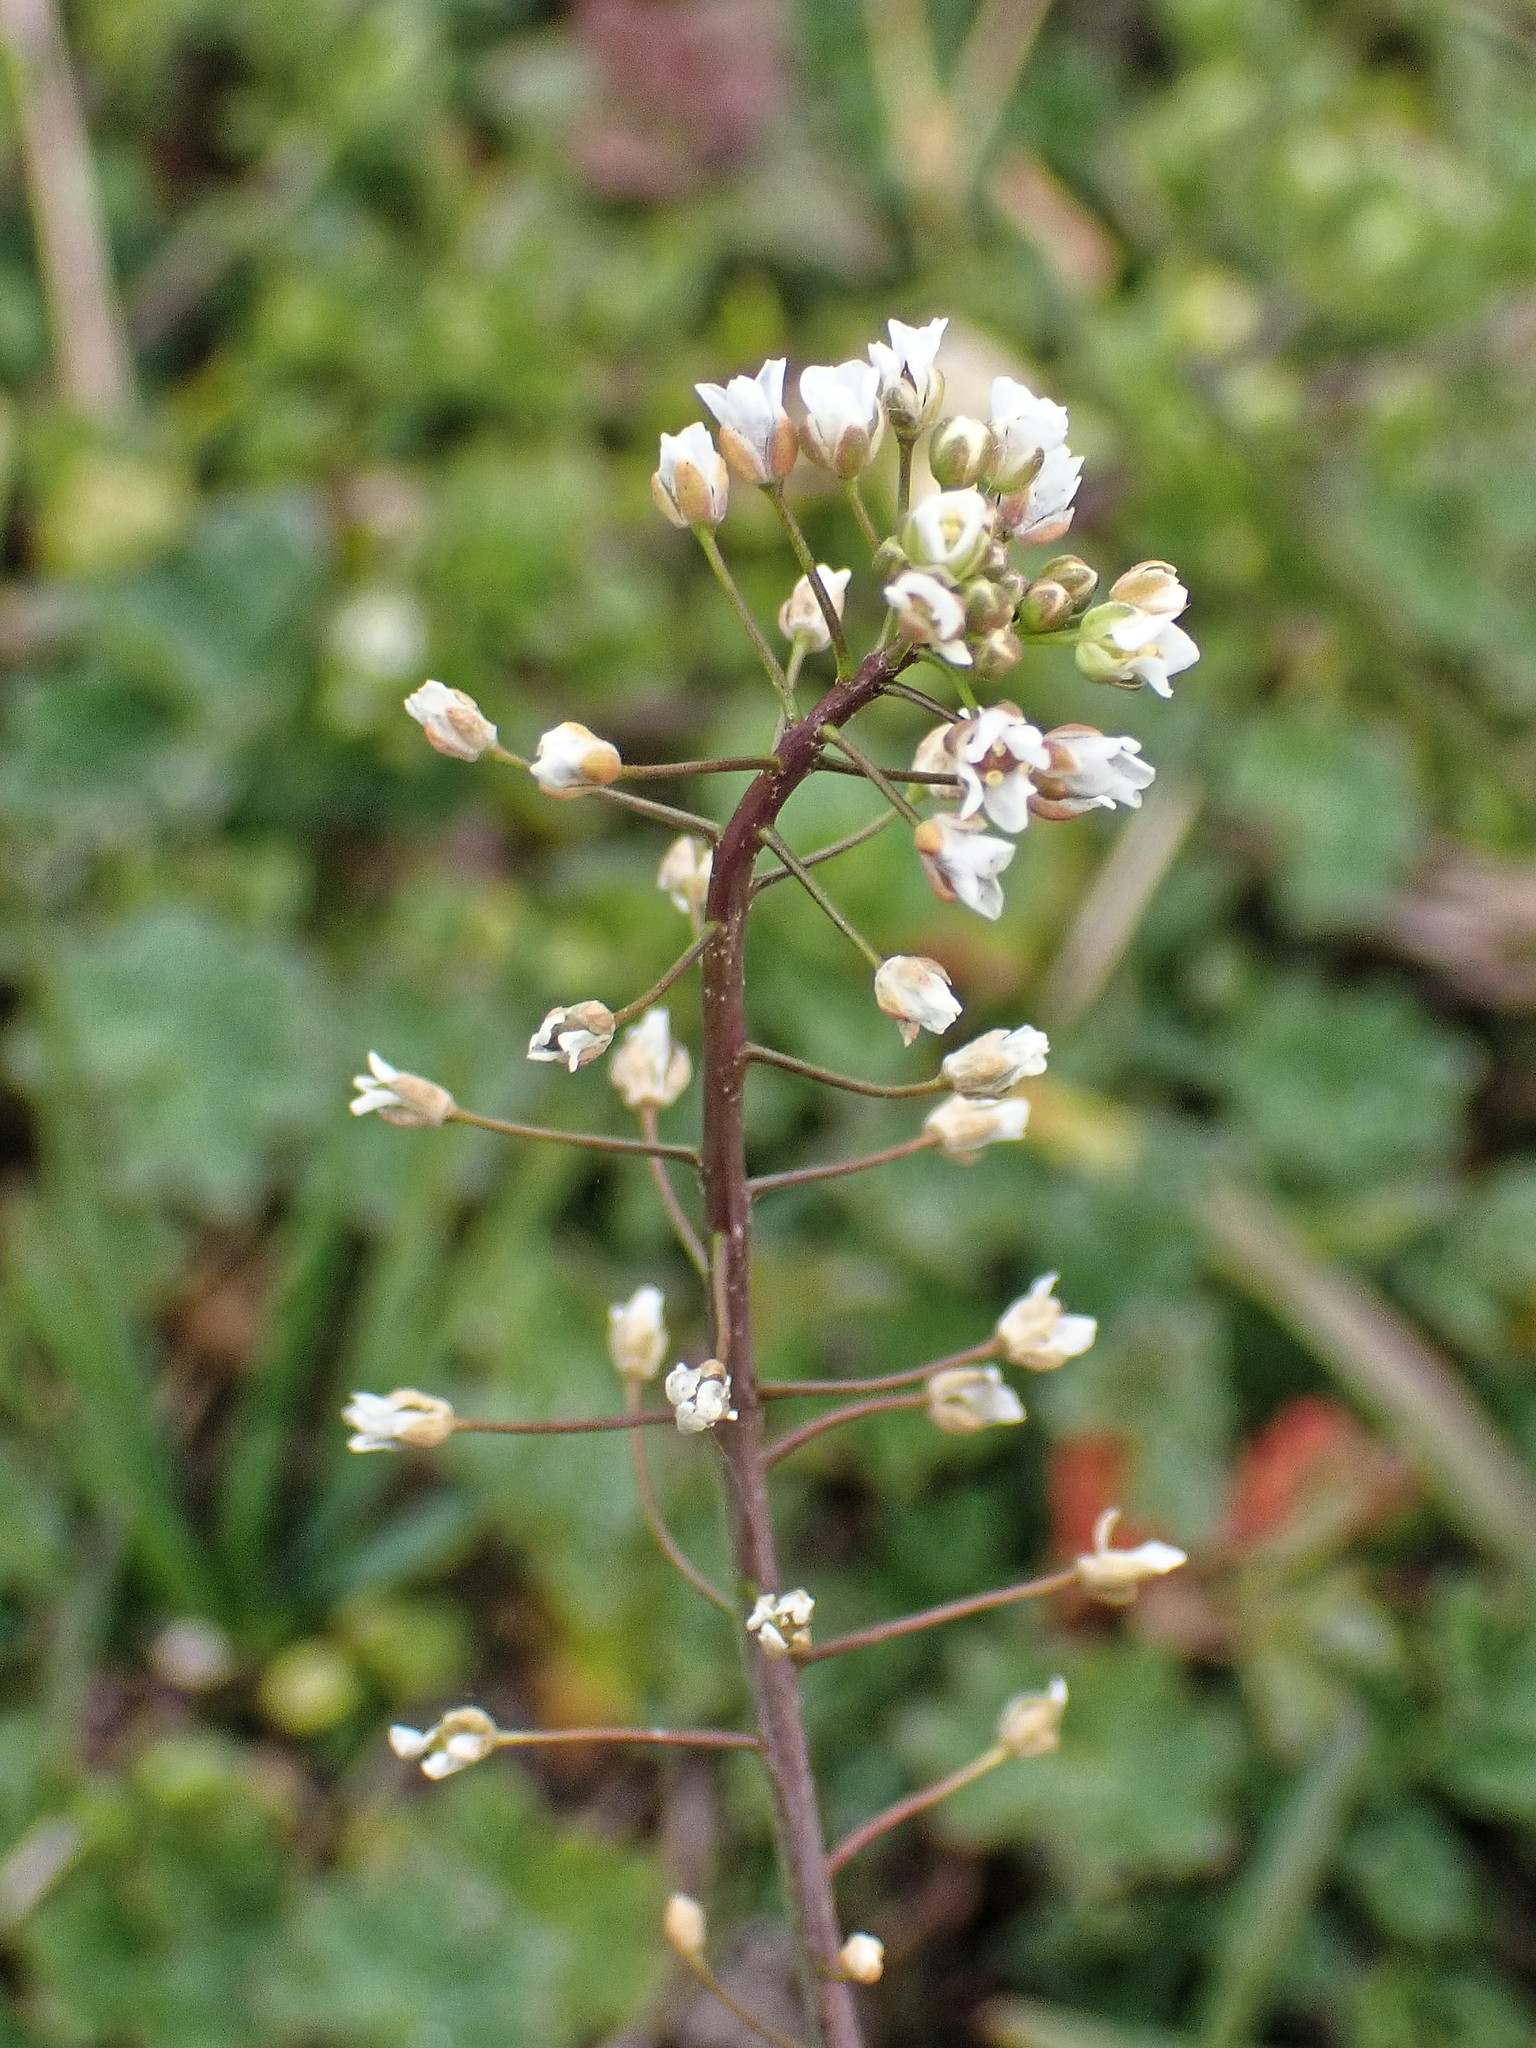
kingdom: Plantae
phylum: Tracheophyta
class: Magnoliopsida
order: Brassicales
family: Brassicaceae
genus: Capsella
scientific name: Capsella bursa-pastoris
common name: Shepherd's purse
